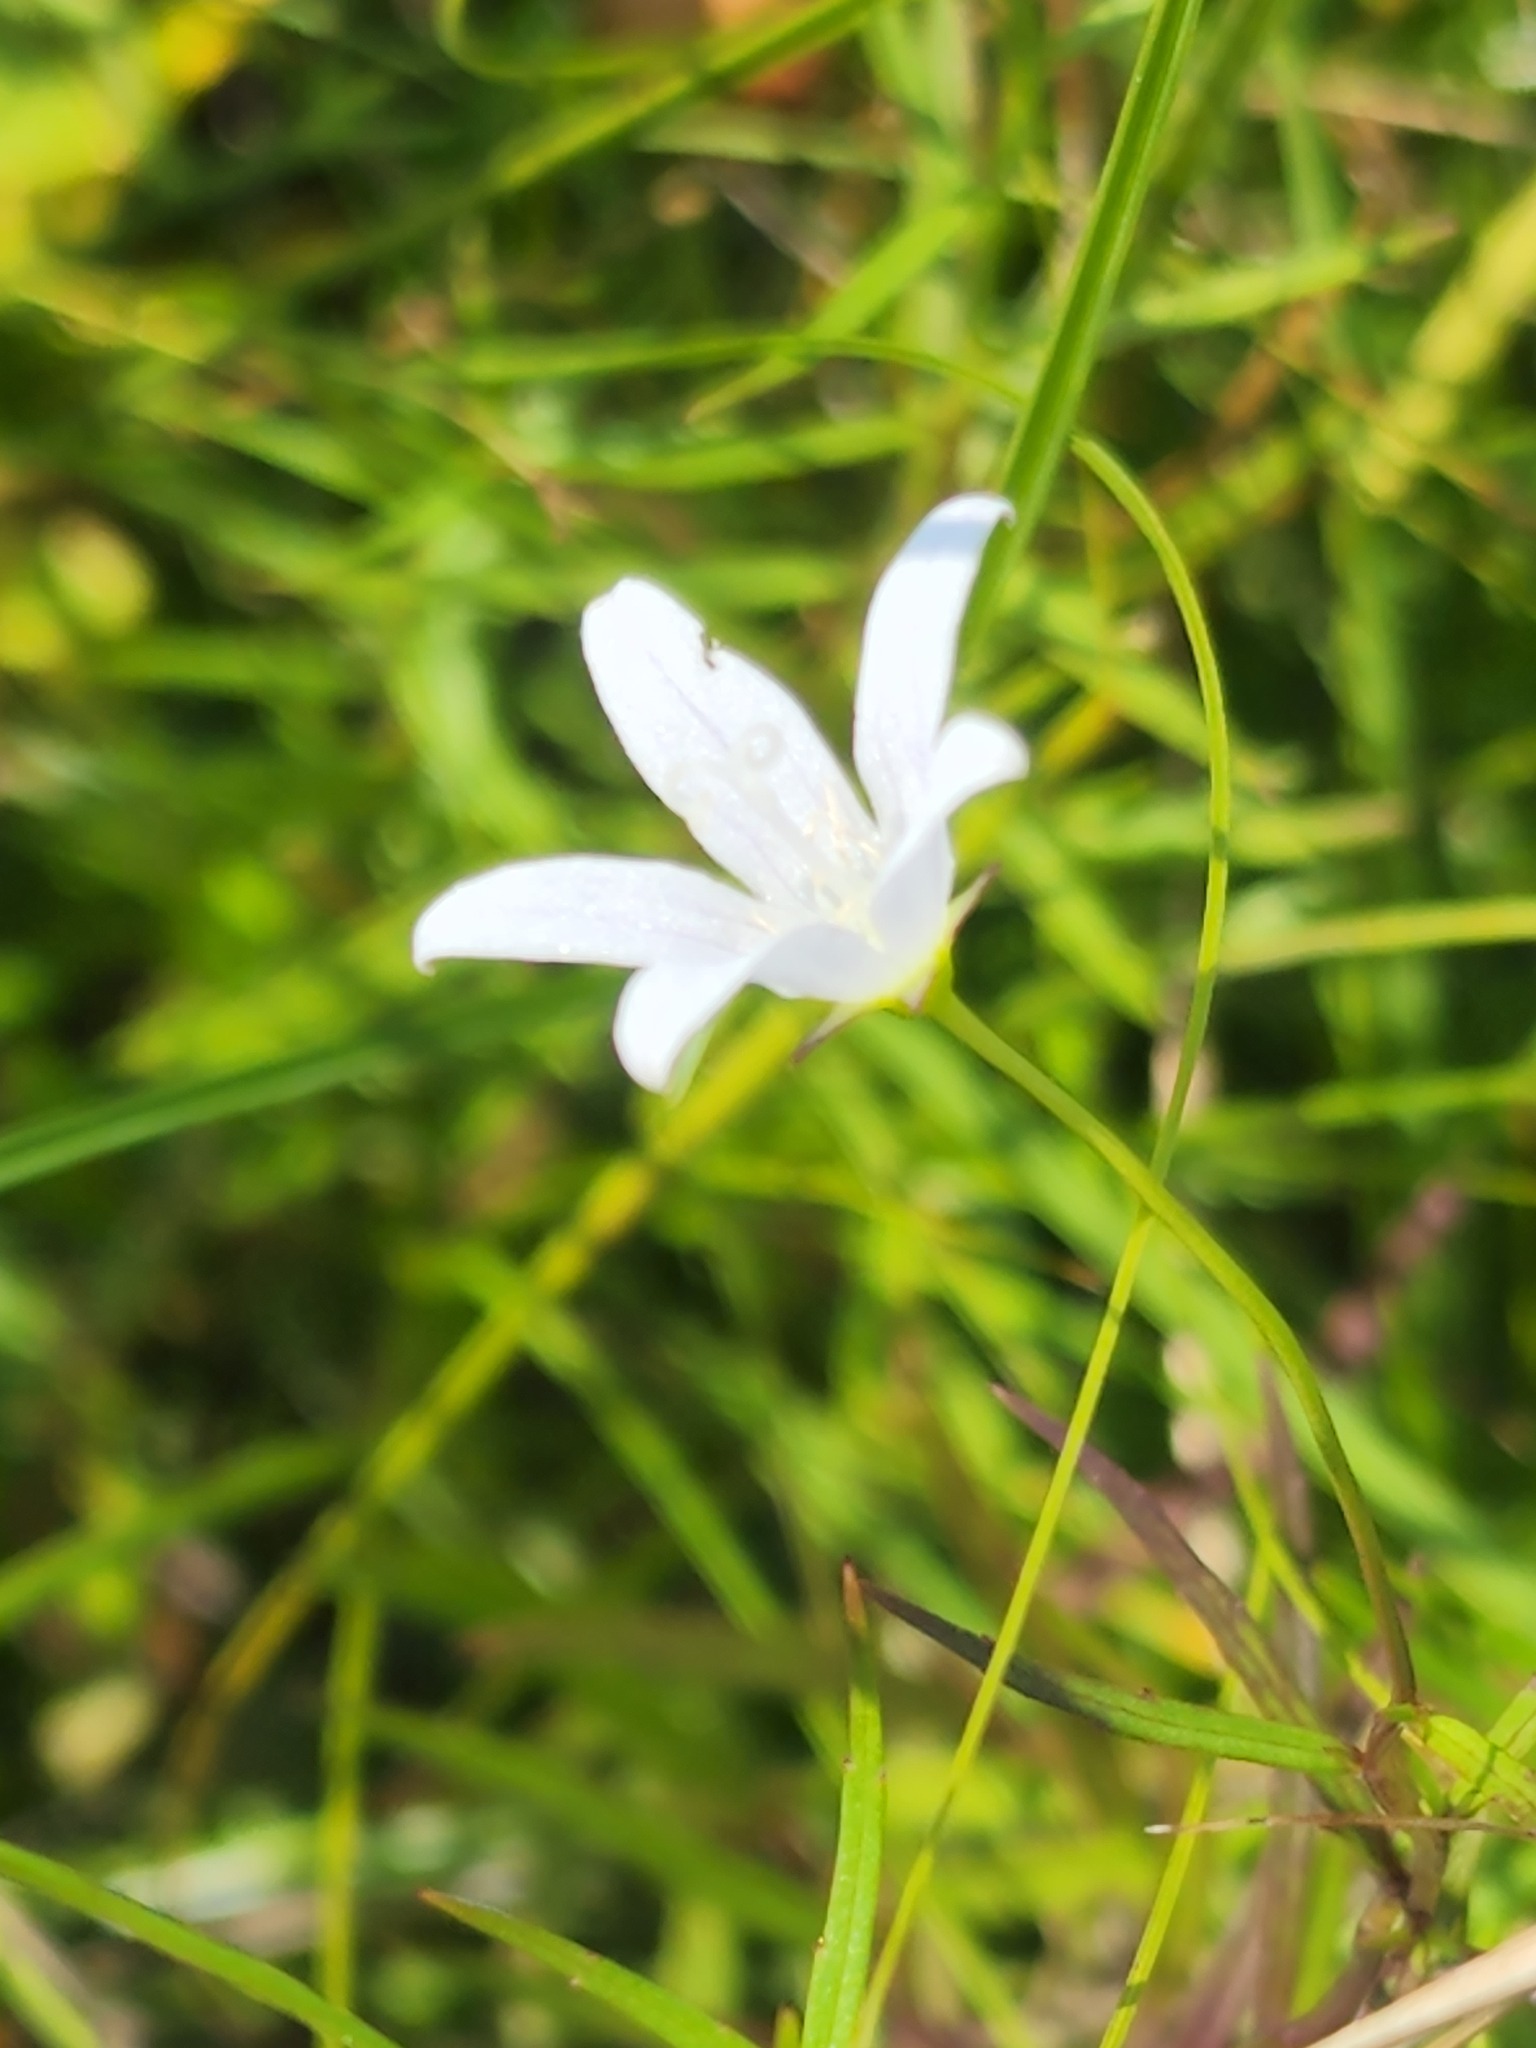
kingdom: Plantae
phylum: Tracheophyta
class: Magnoliopsida
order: Asterales
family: Campanulaceae
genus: Palustricodon
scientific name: Palustricodon aparinoides
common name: Bedstraw bellflower
